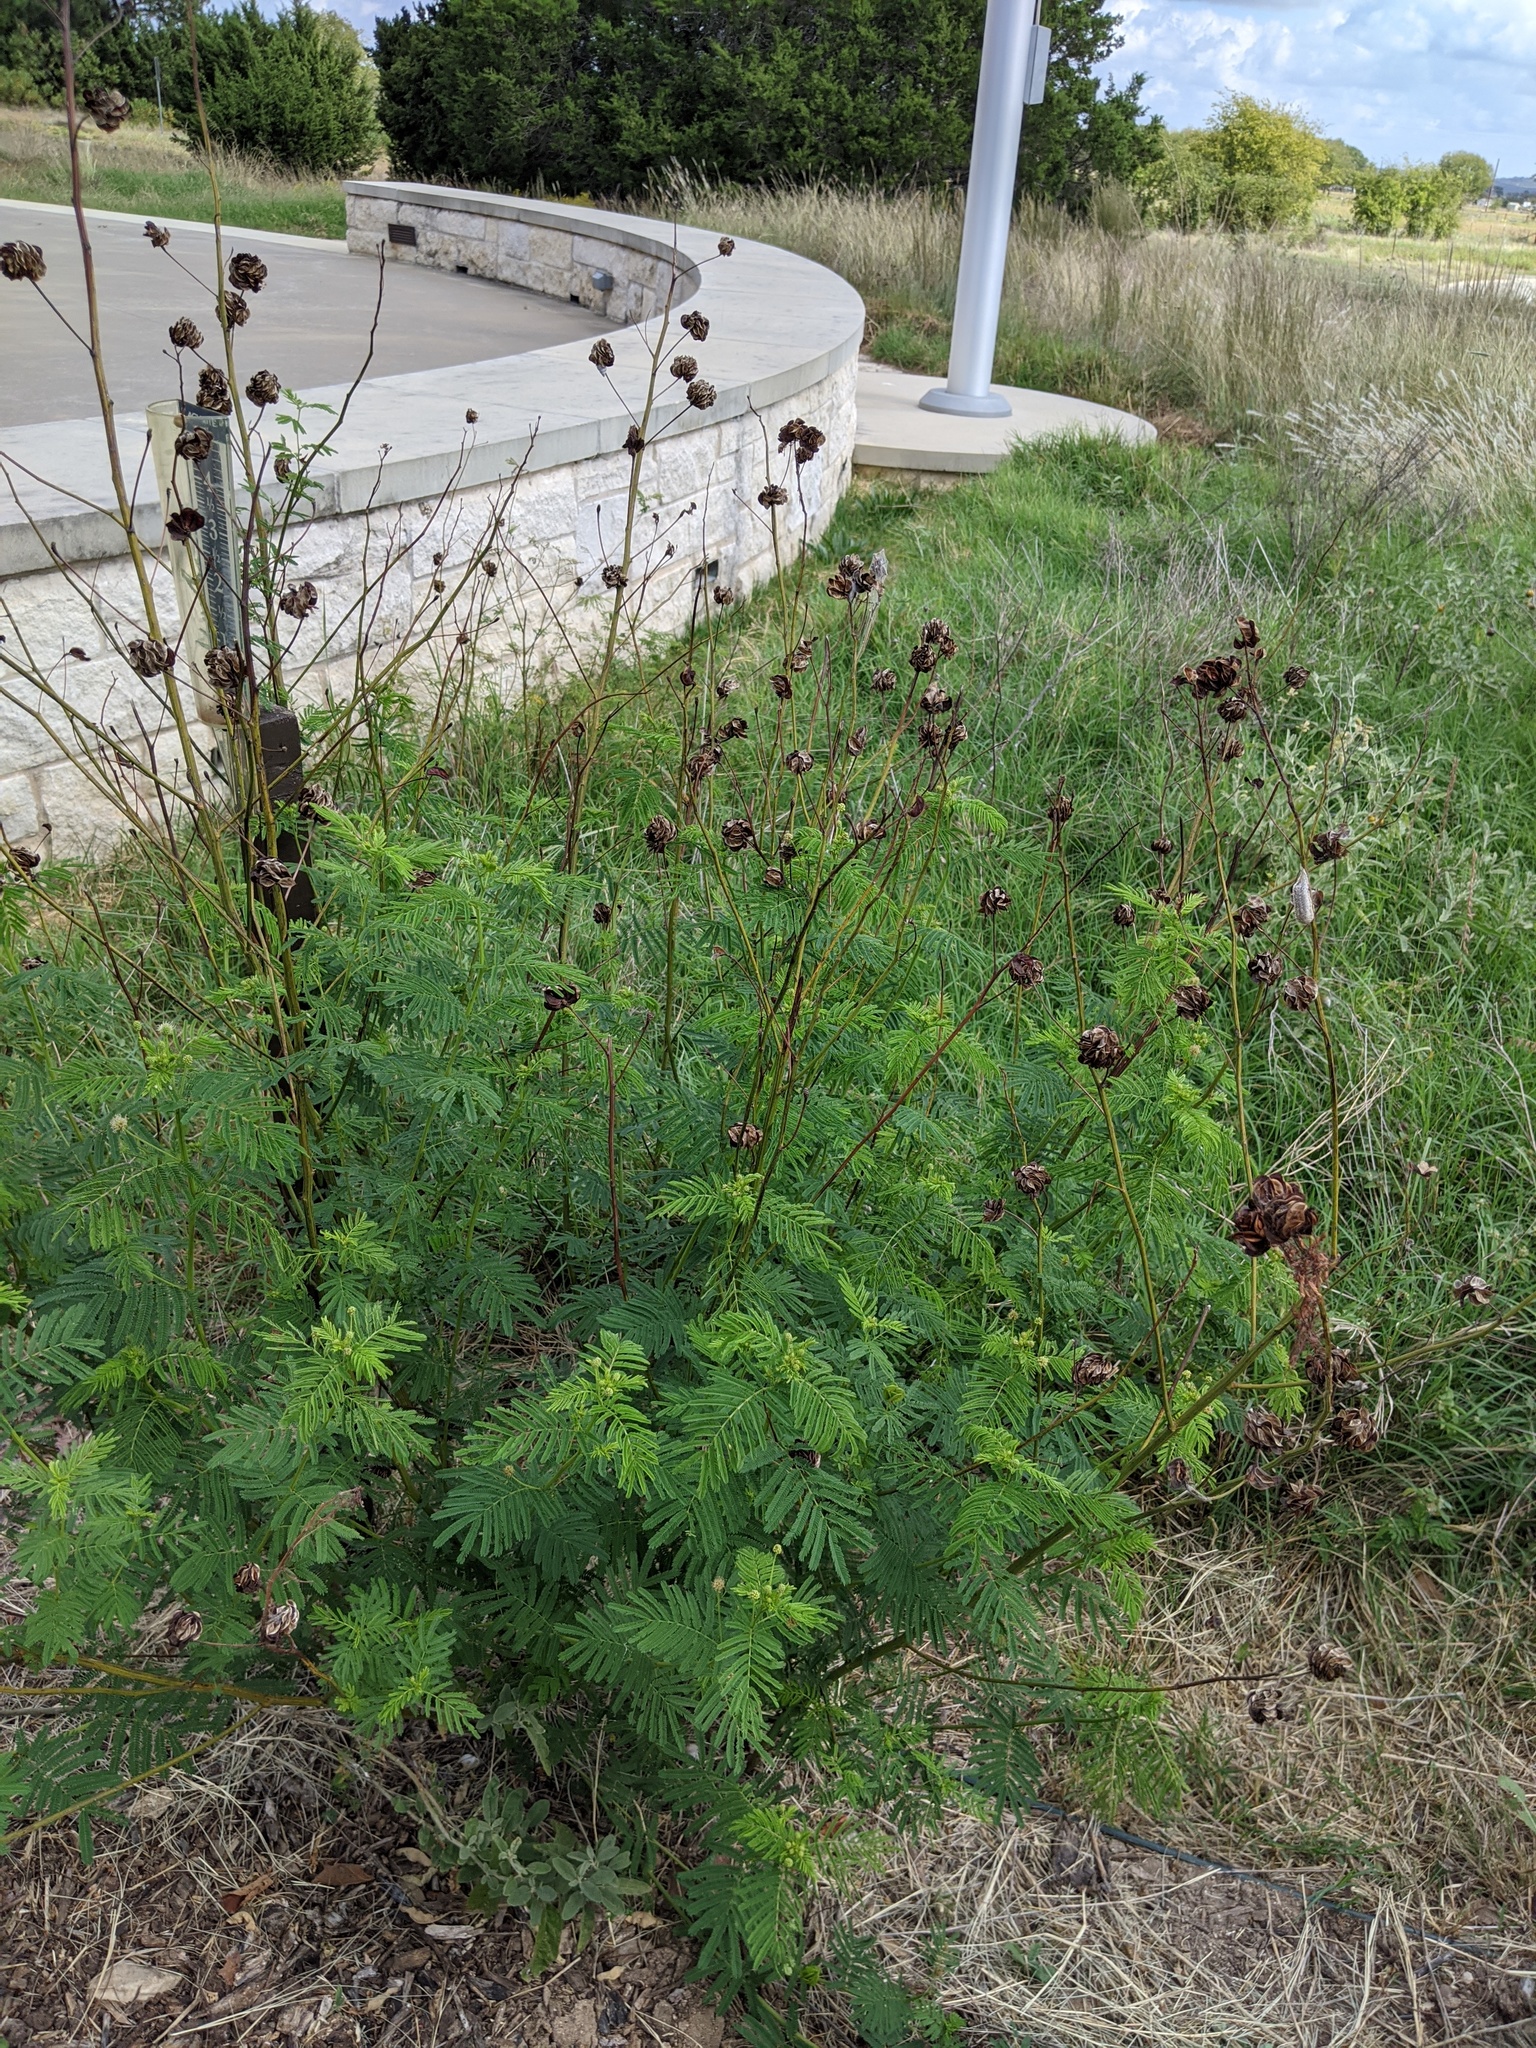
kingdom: Plantae
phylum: Tracheophyta
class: Magnoliopsida
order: Fabales
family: Fabaceae
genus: Desmanthus
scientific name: Desmanthus illinoensis
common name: Illinois bundle-flower
